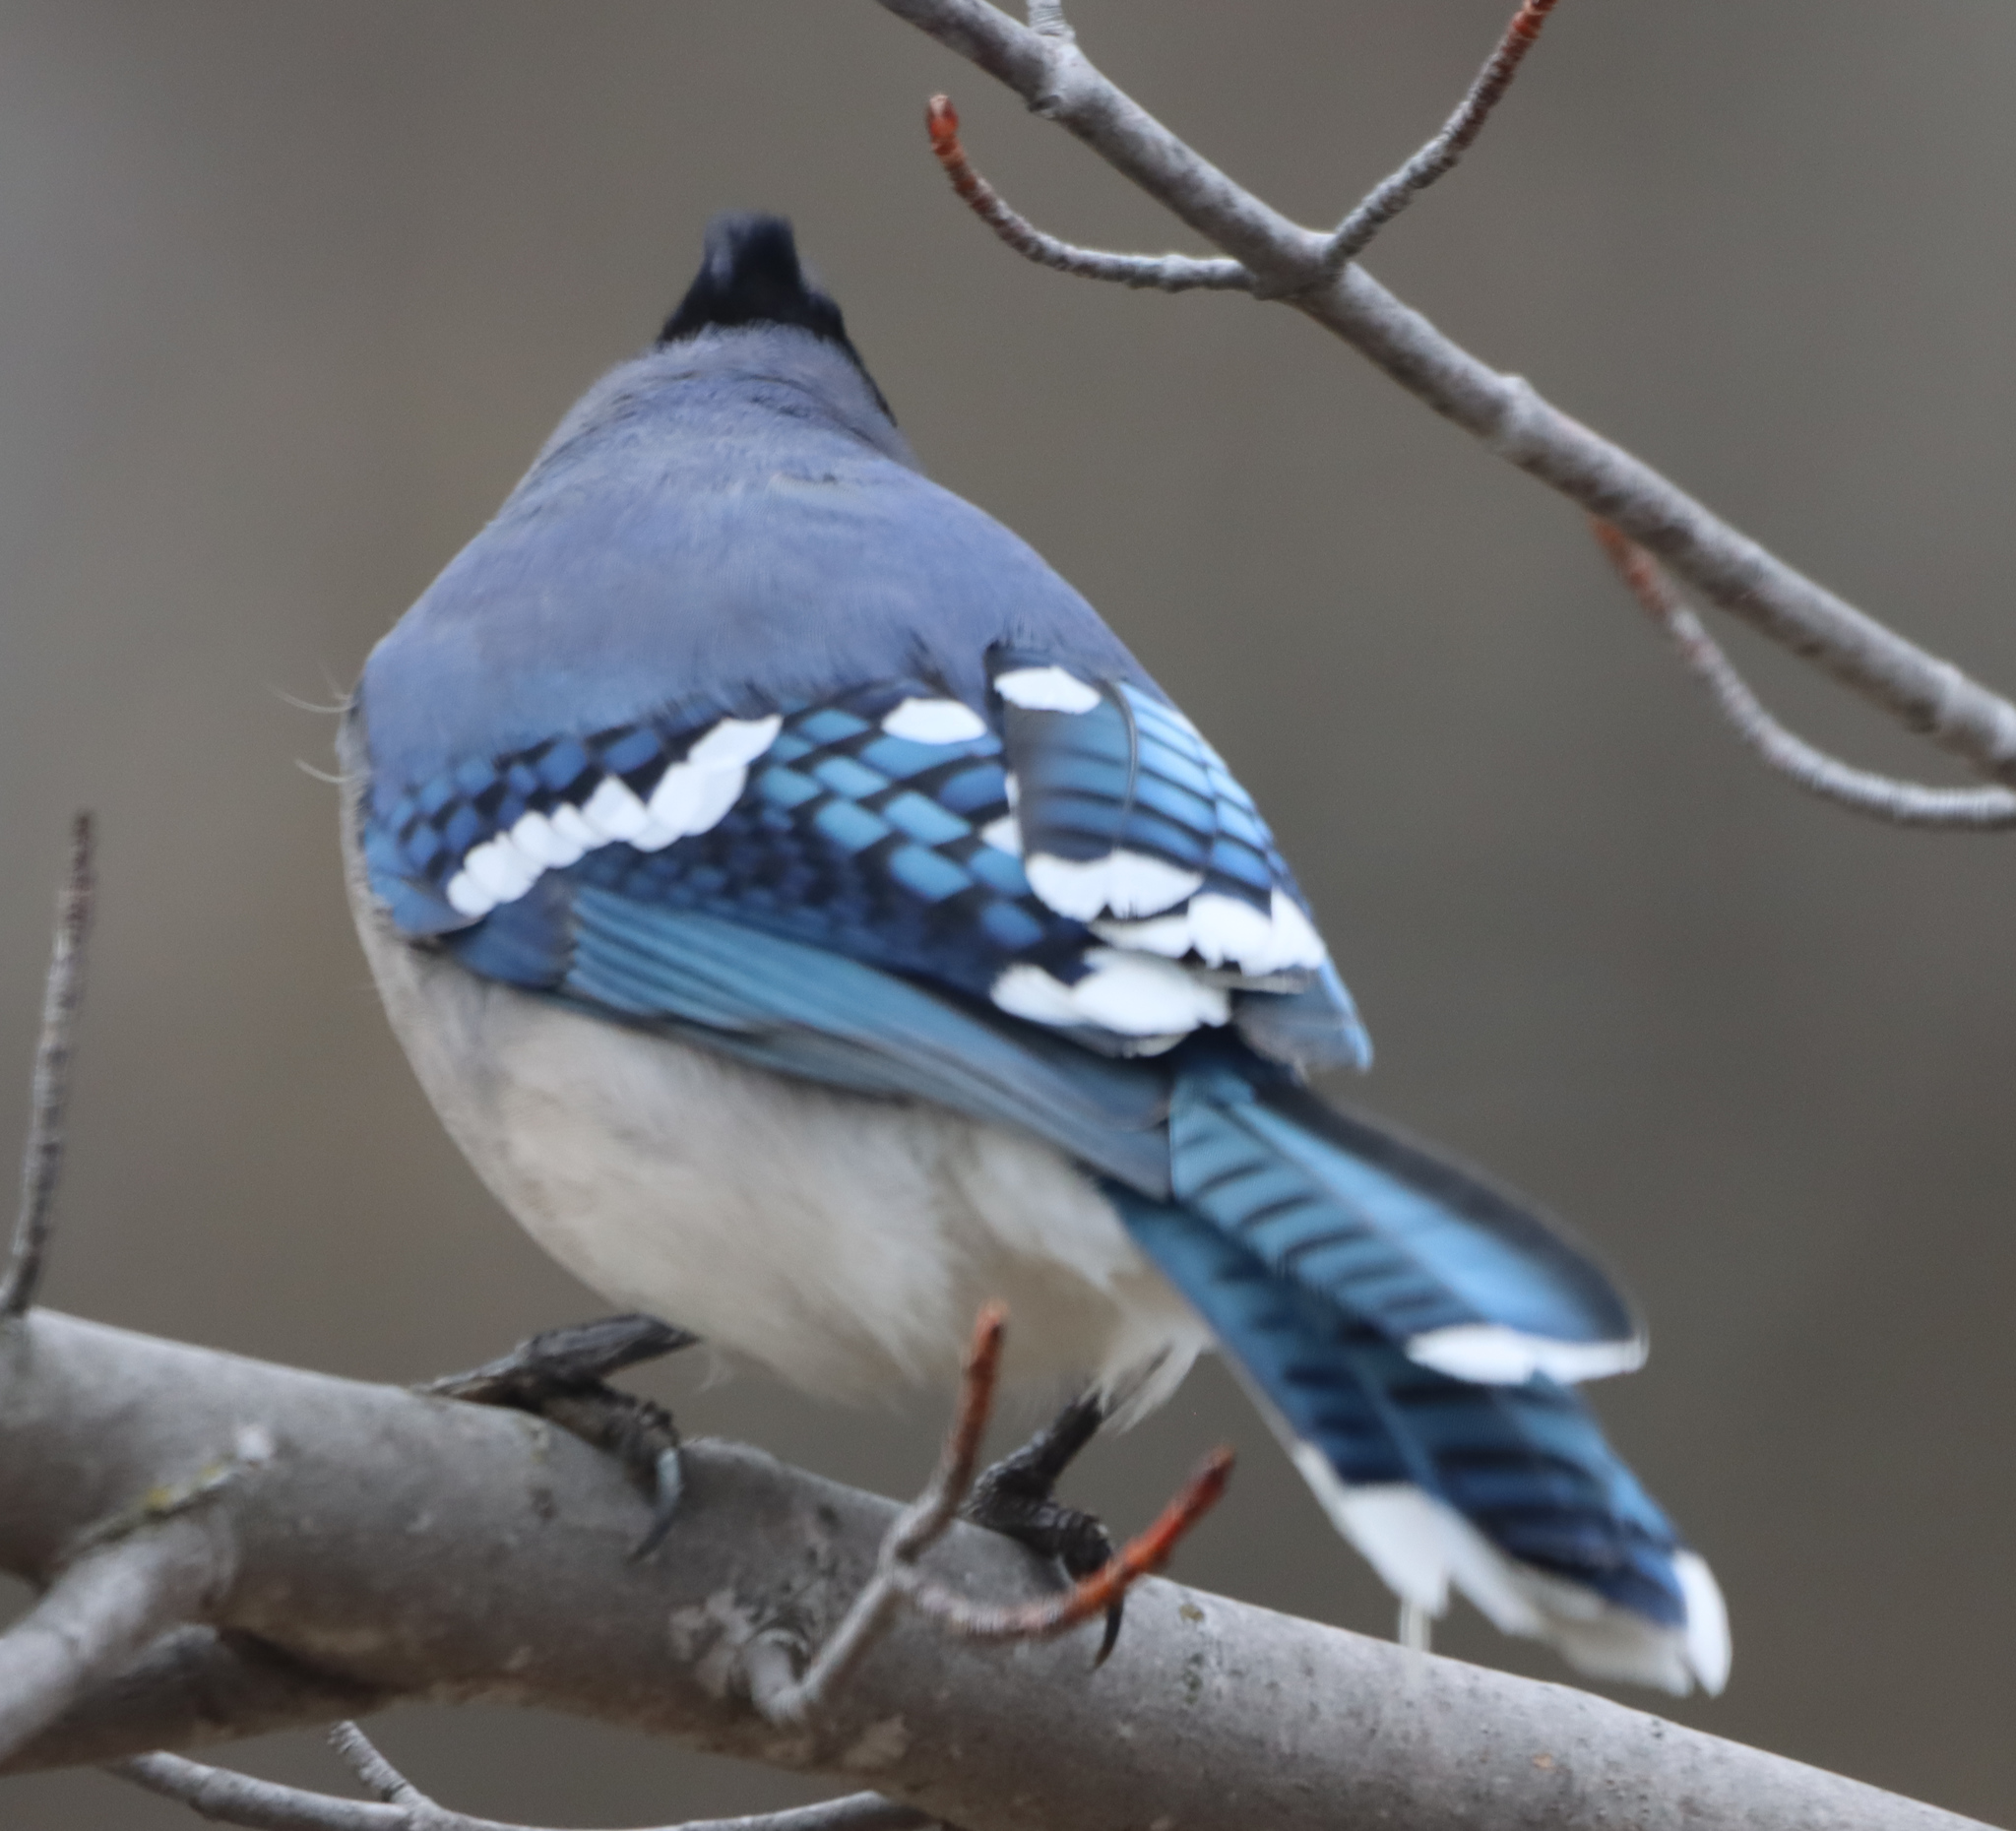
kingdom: Animalia
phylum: Chordata
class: Aves
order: Passeriformes
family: Corvidae
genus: Cyanocitta
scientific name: Cyanocitta cristata
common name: Blue jay
